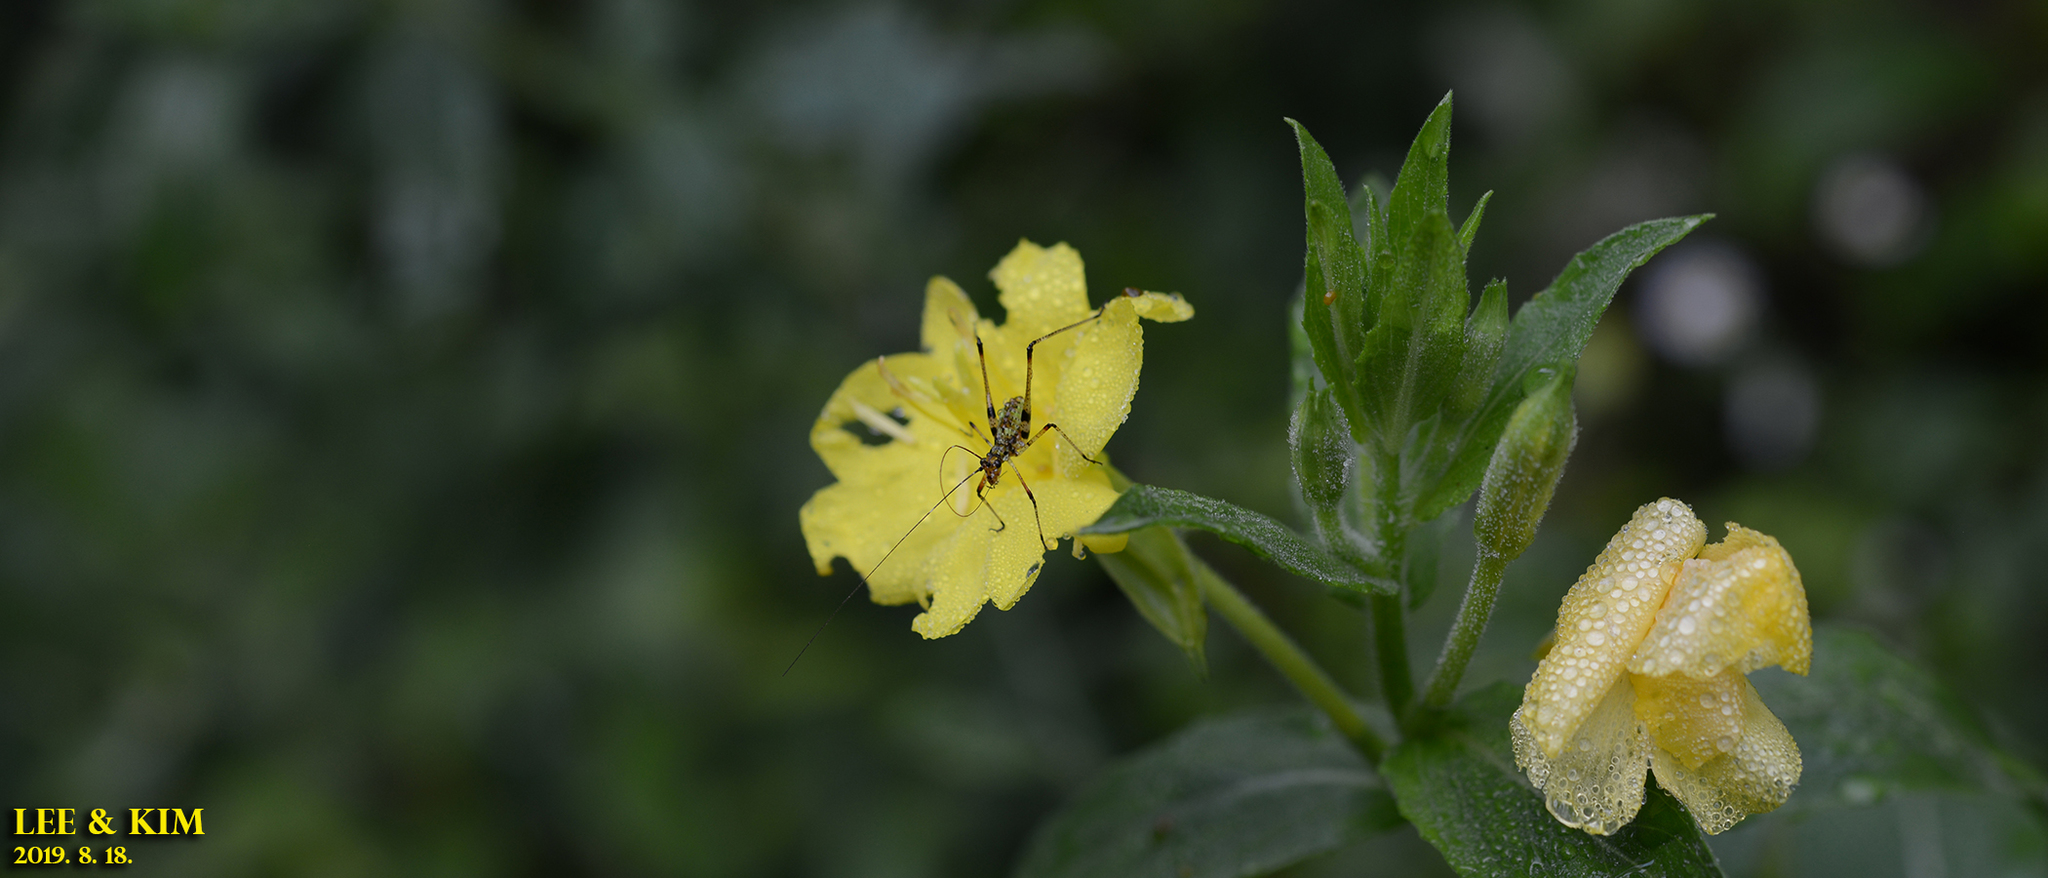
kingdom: Animalia
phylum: Arthropoda
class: Insecta
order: Orthoptera
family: Tettigoniidae
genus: Phaneroptera
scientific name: Phaneroptera nigroantennata
